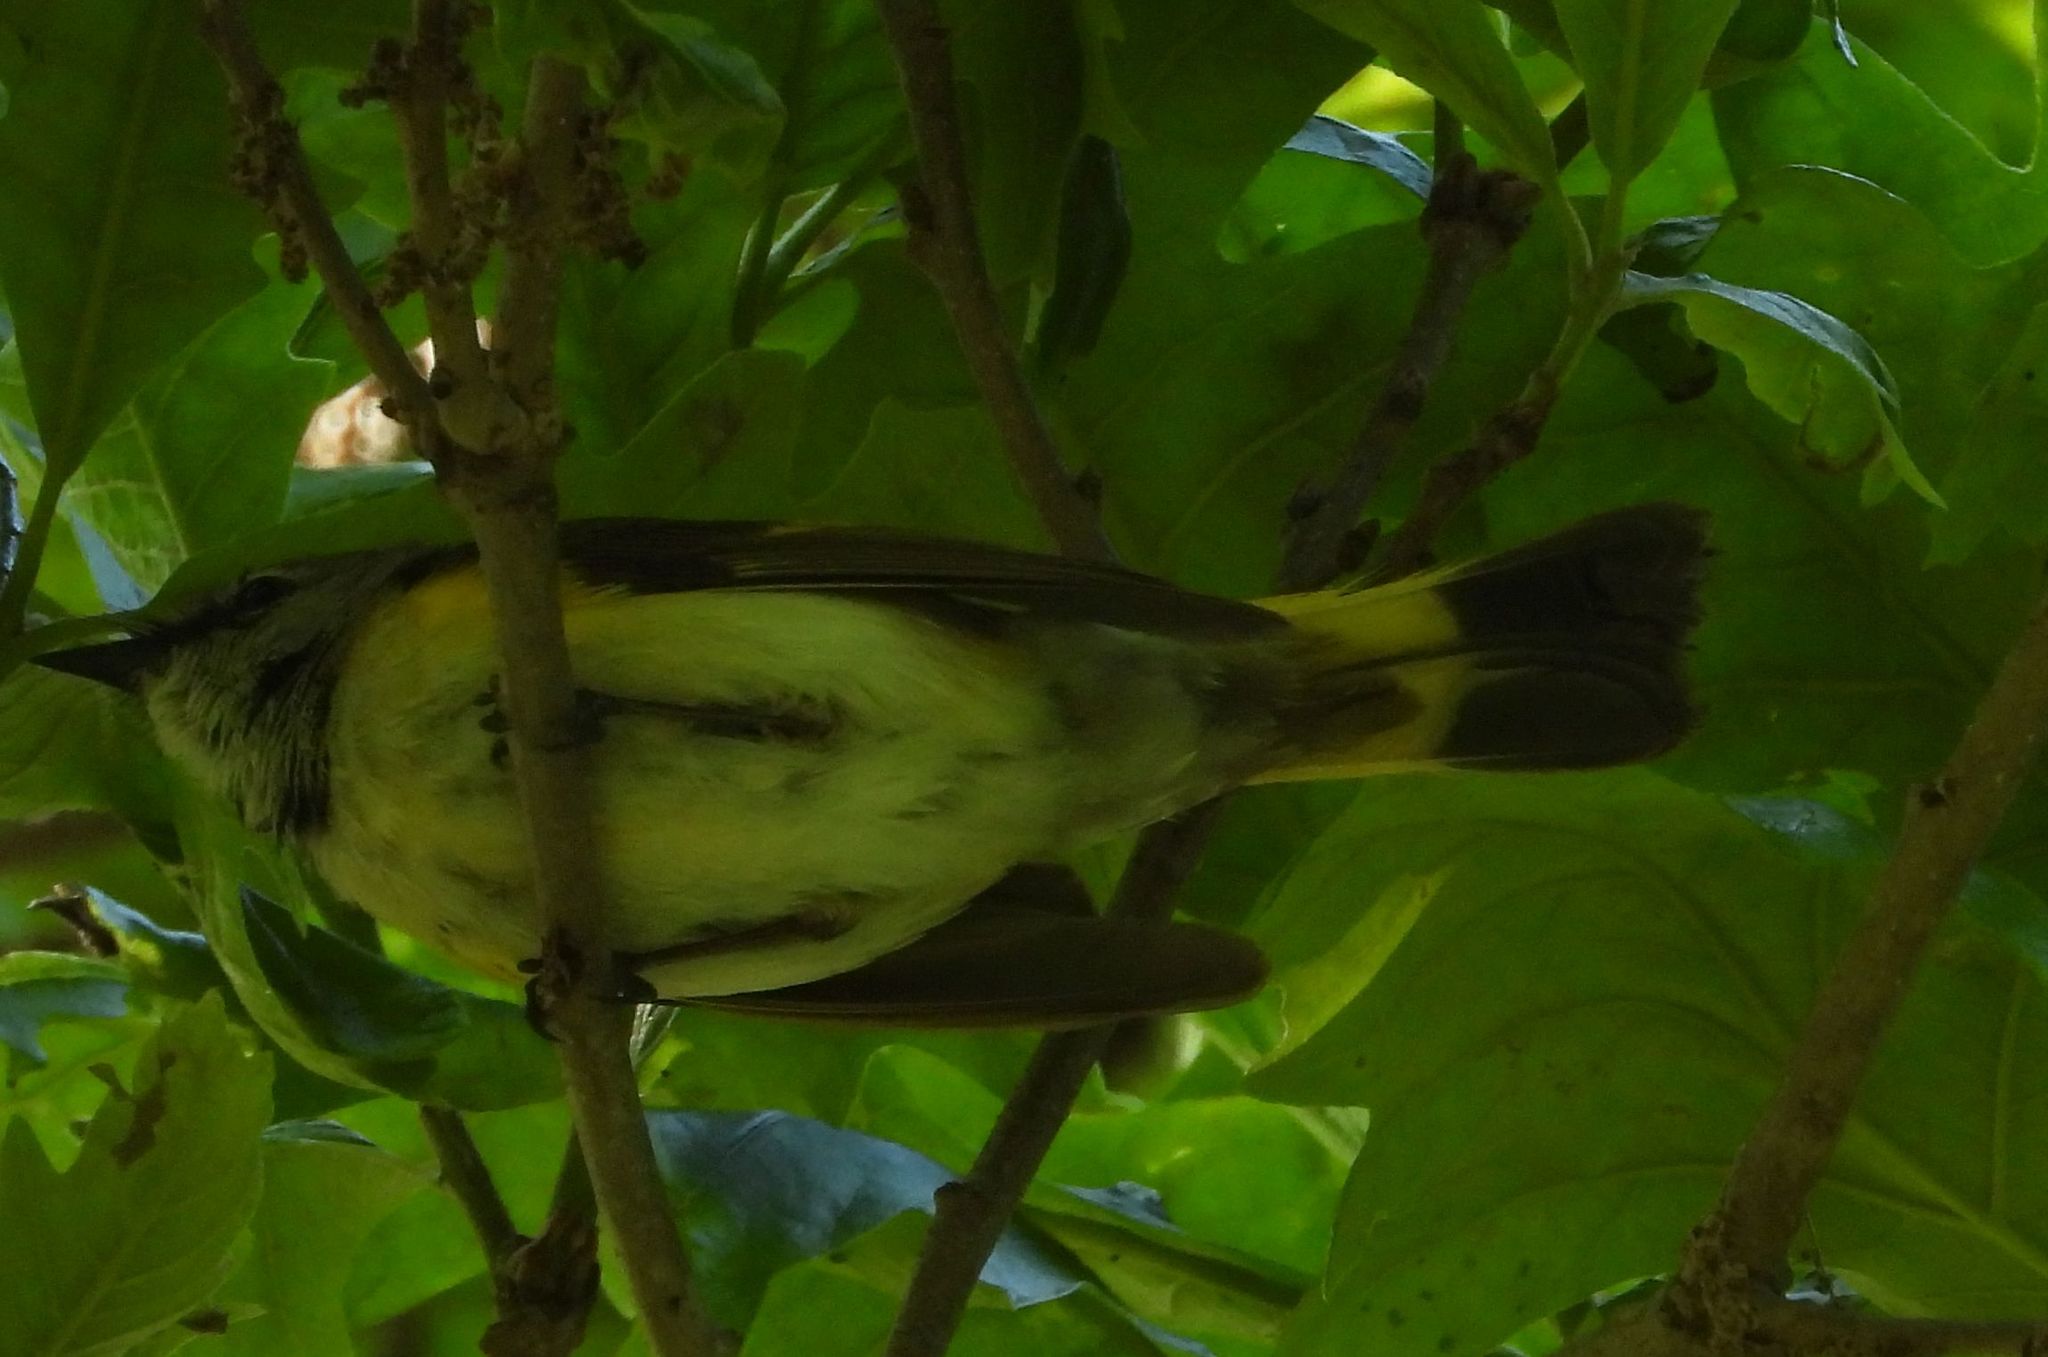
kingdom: Animalia
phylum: Chordata
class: Aves
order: Passeriformes
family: Parulidae
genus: Setophaga
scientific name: Setophaga ruticilla
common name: American redstart
